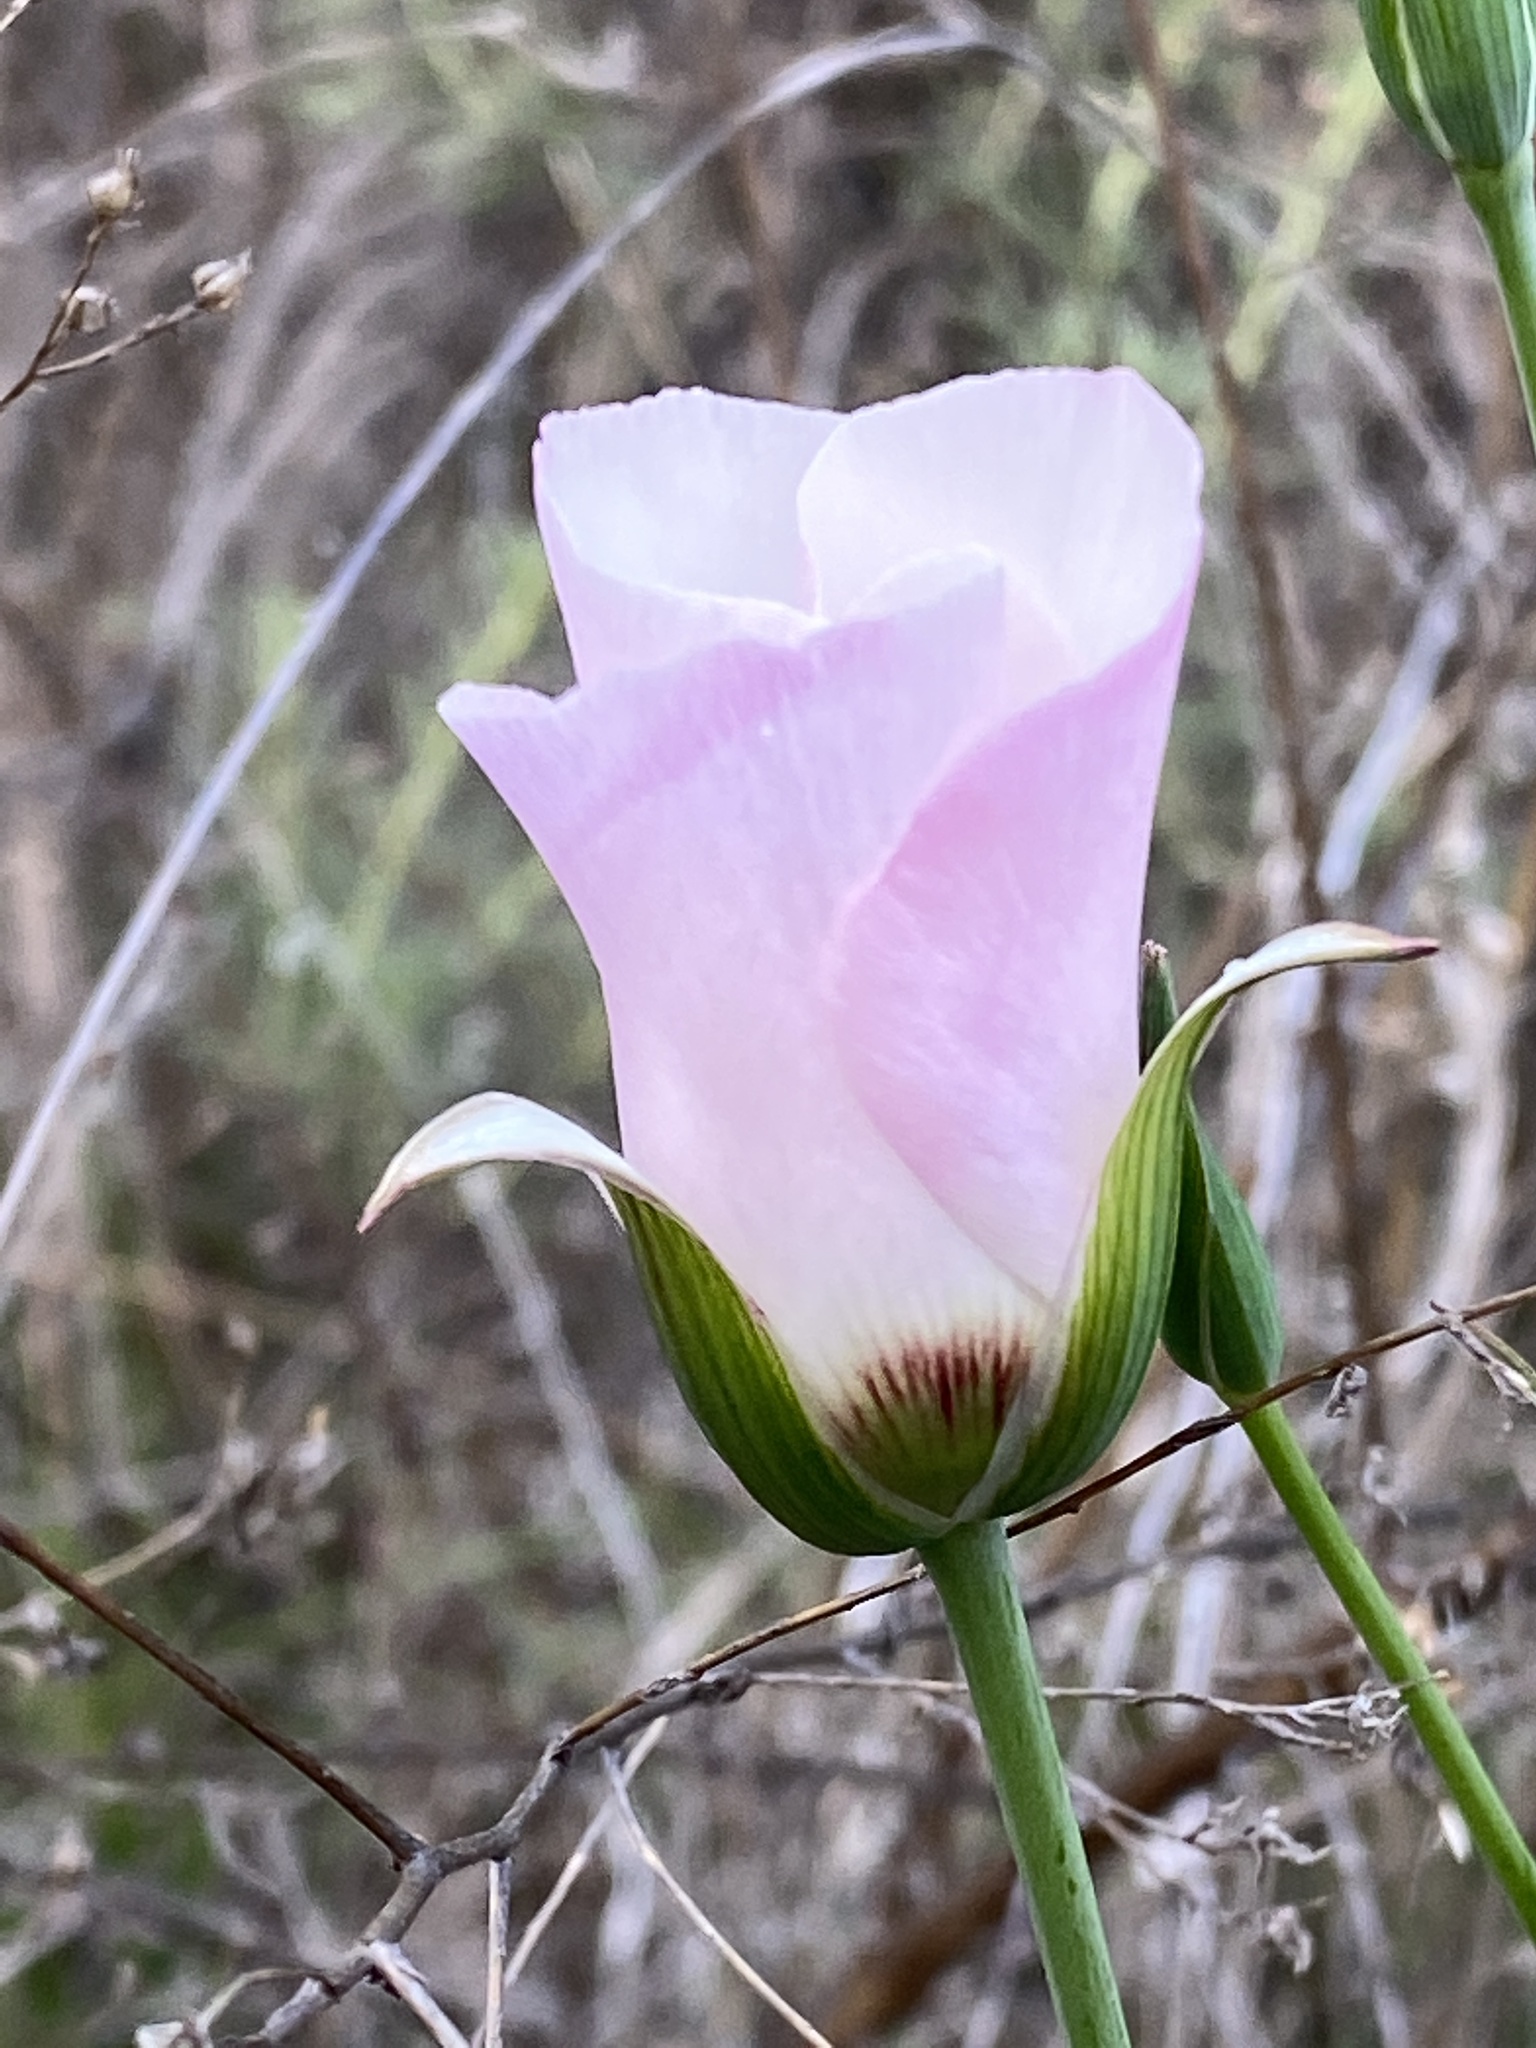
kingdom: Plantae
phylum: Tracheophyta
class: Liliopsida
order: Liliales
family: Liliaceae
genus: Calochortus
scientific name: Calochortus catalinae
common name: Catalina mariposa-lily
